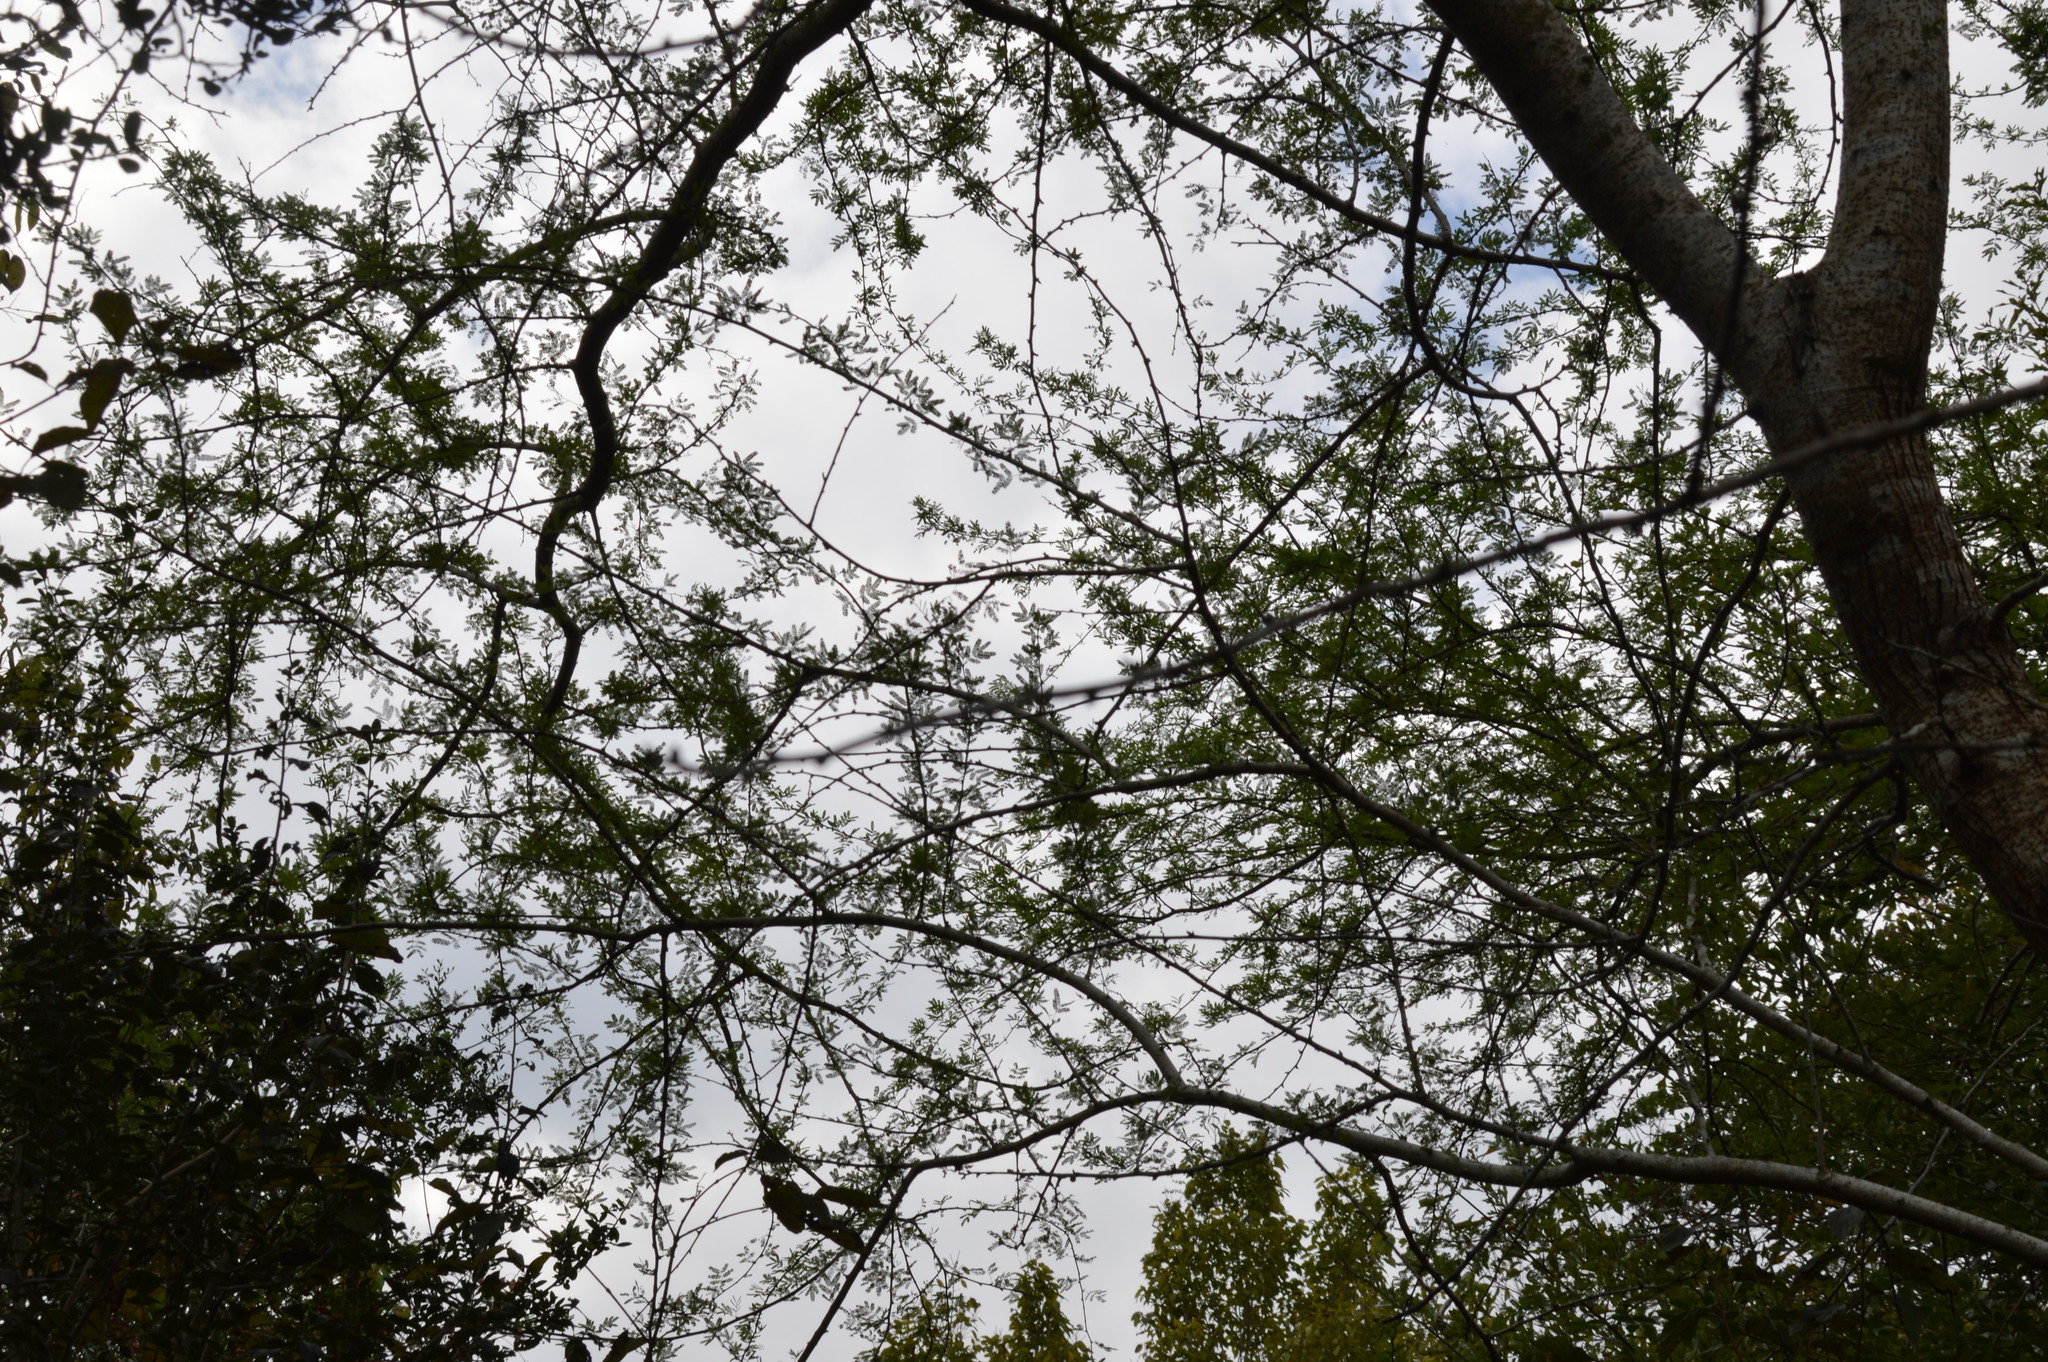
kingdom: Plantae
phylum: Tracheophyta
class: Magnoliopsida
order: Fabales
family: Fabaceae
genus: Vachellia
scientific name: Vachellia farnesiana
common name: Sweet acacia
